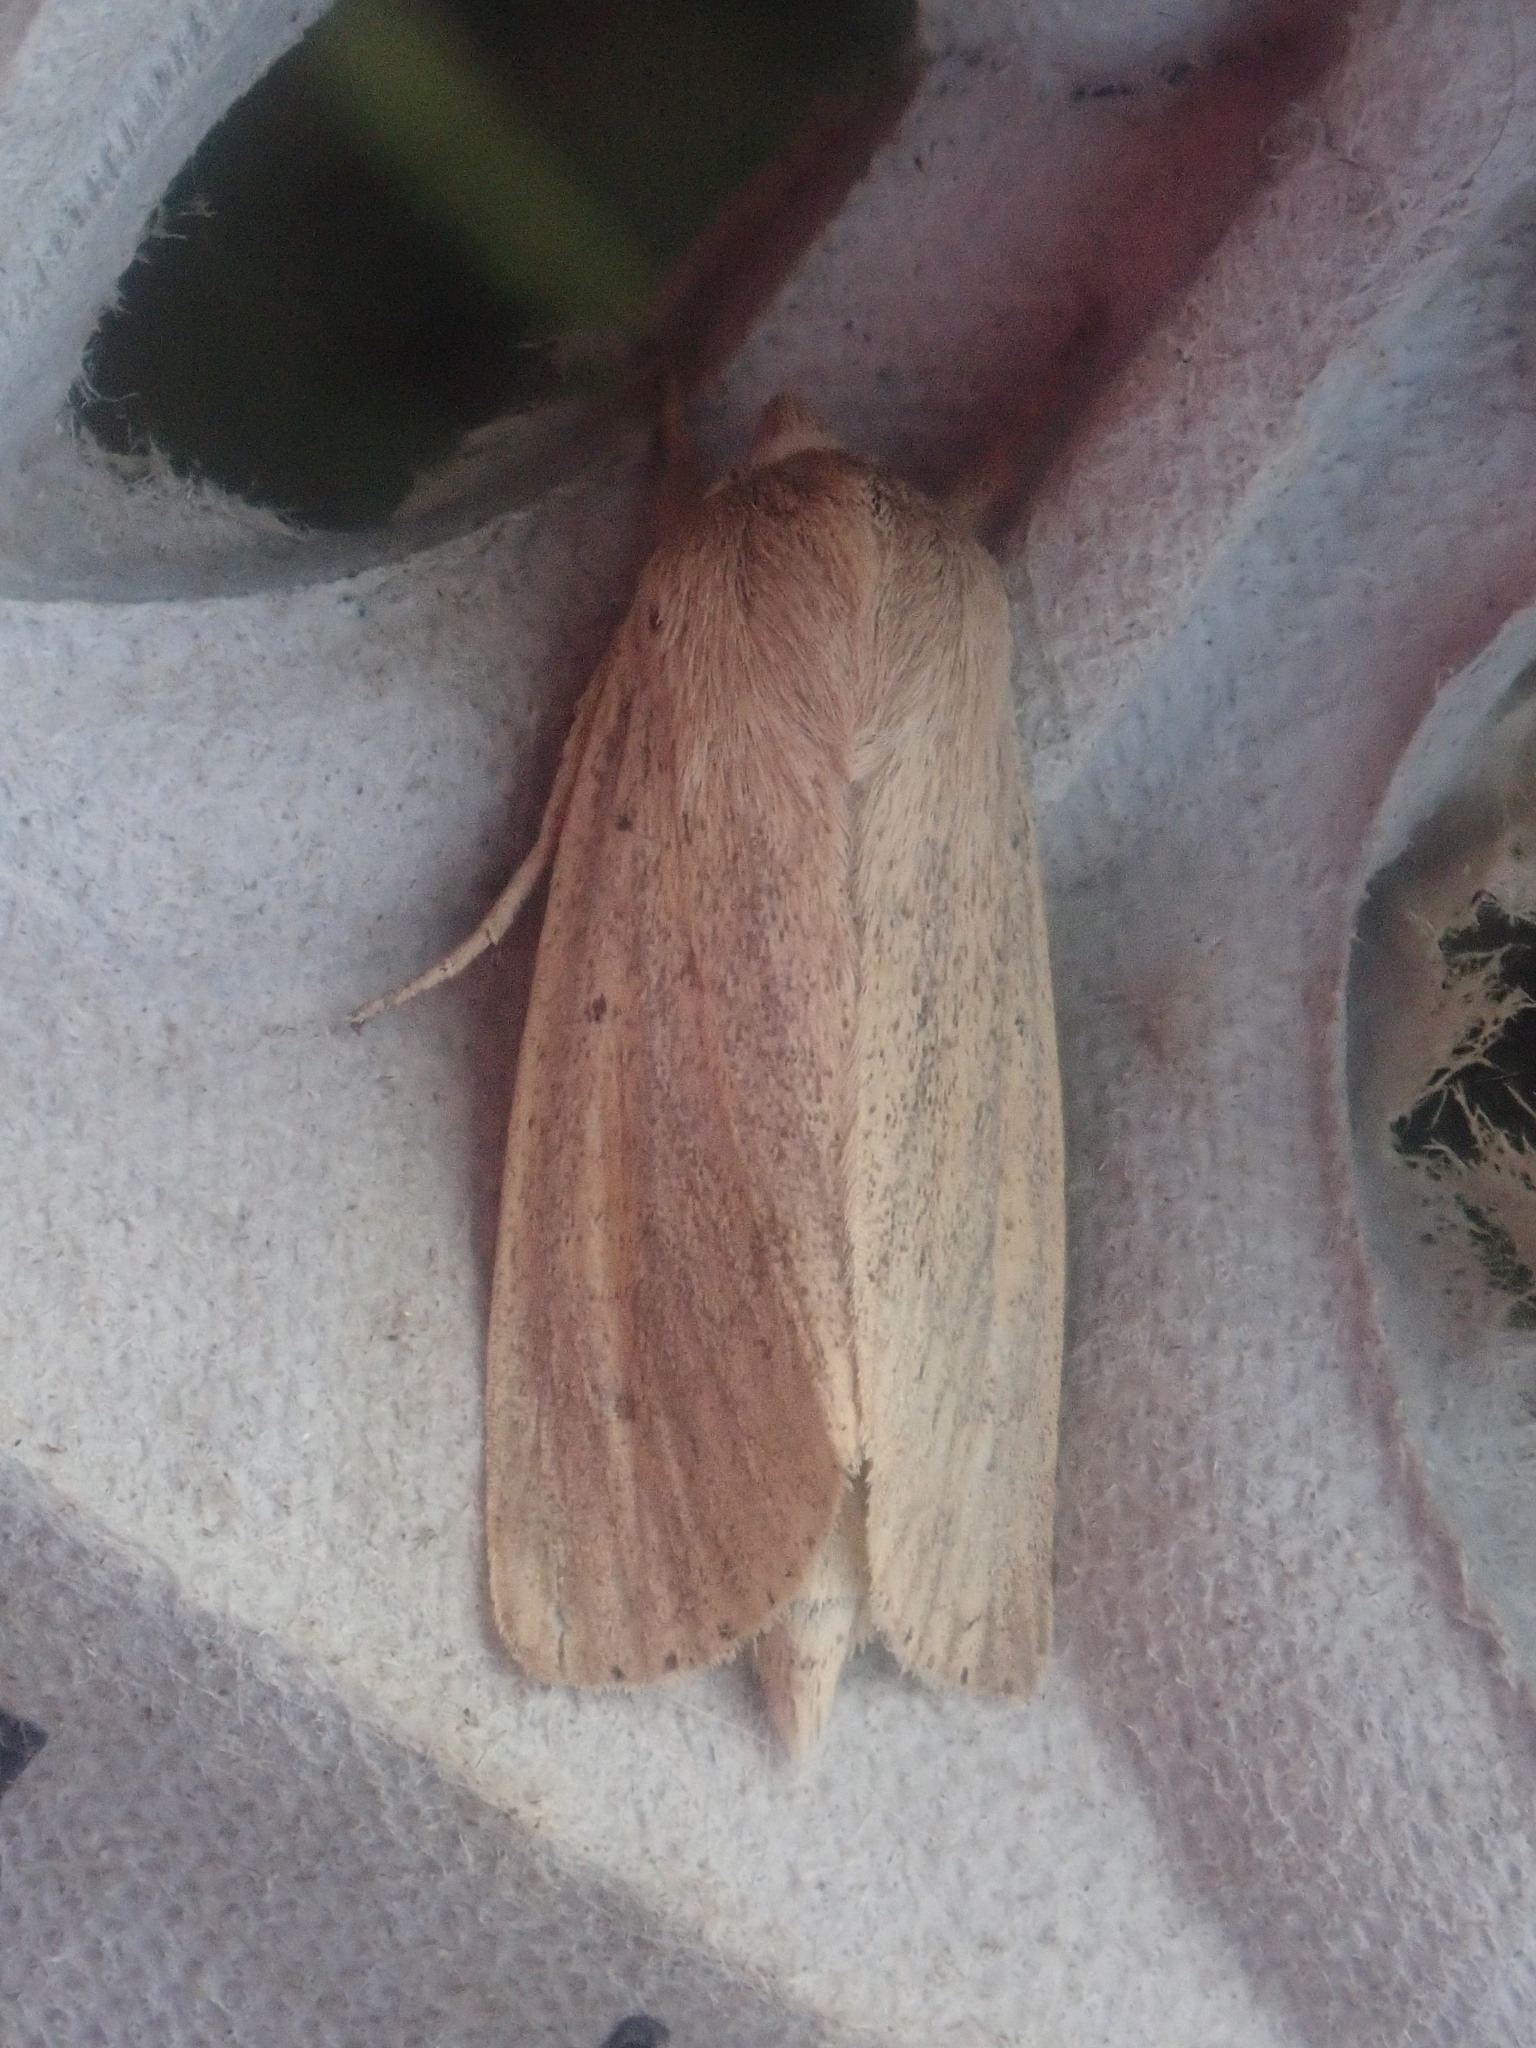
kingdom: Animalia
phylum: Arthropoda
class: Insecta
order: Lepidoptera
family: Noctuidae
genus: Globia
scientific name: Globia oblonga
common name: Oblong sedge borer moth
